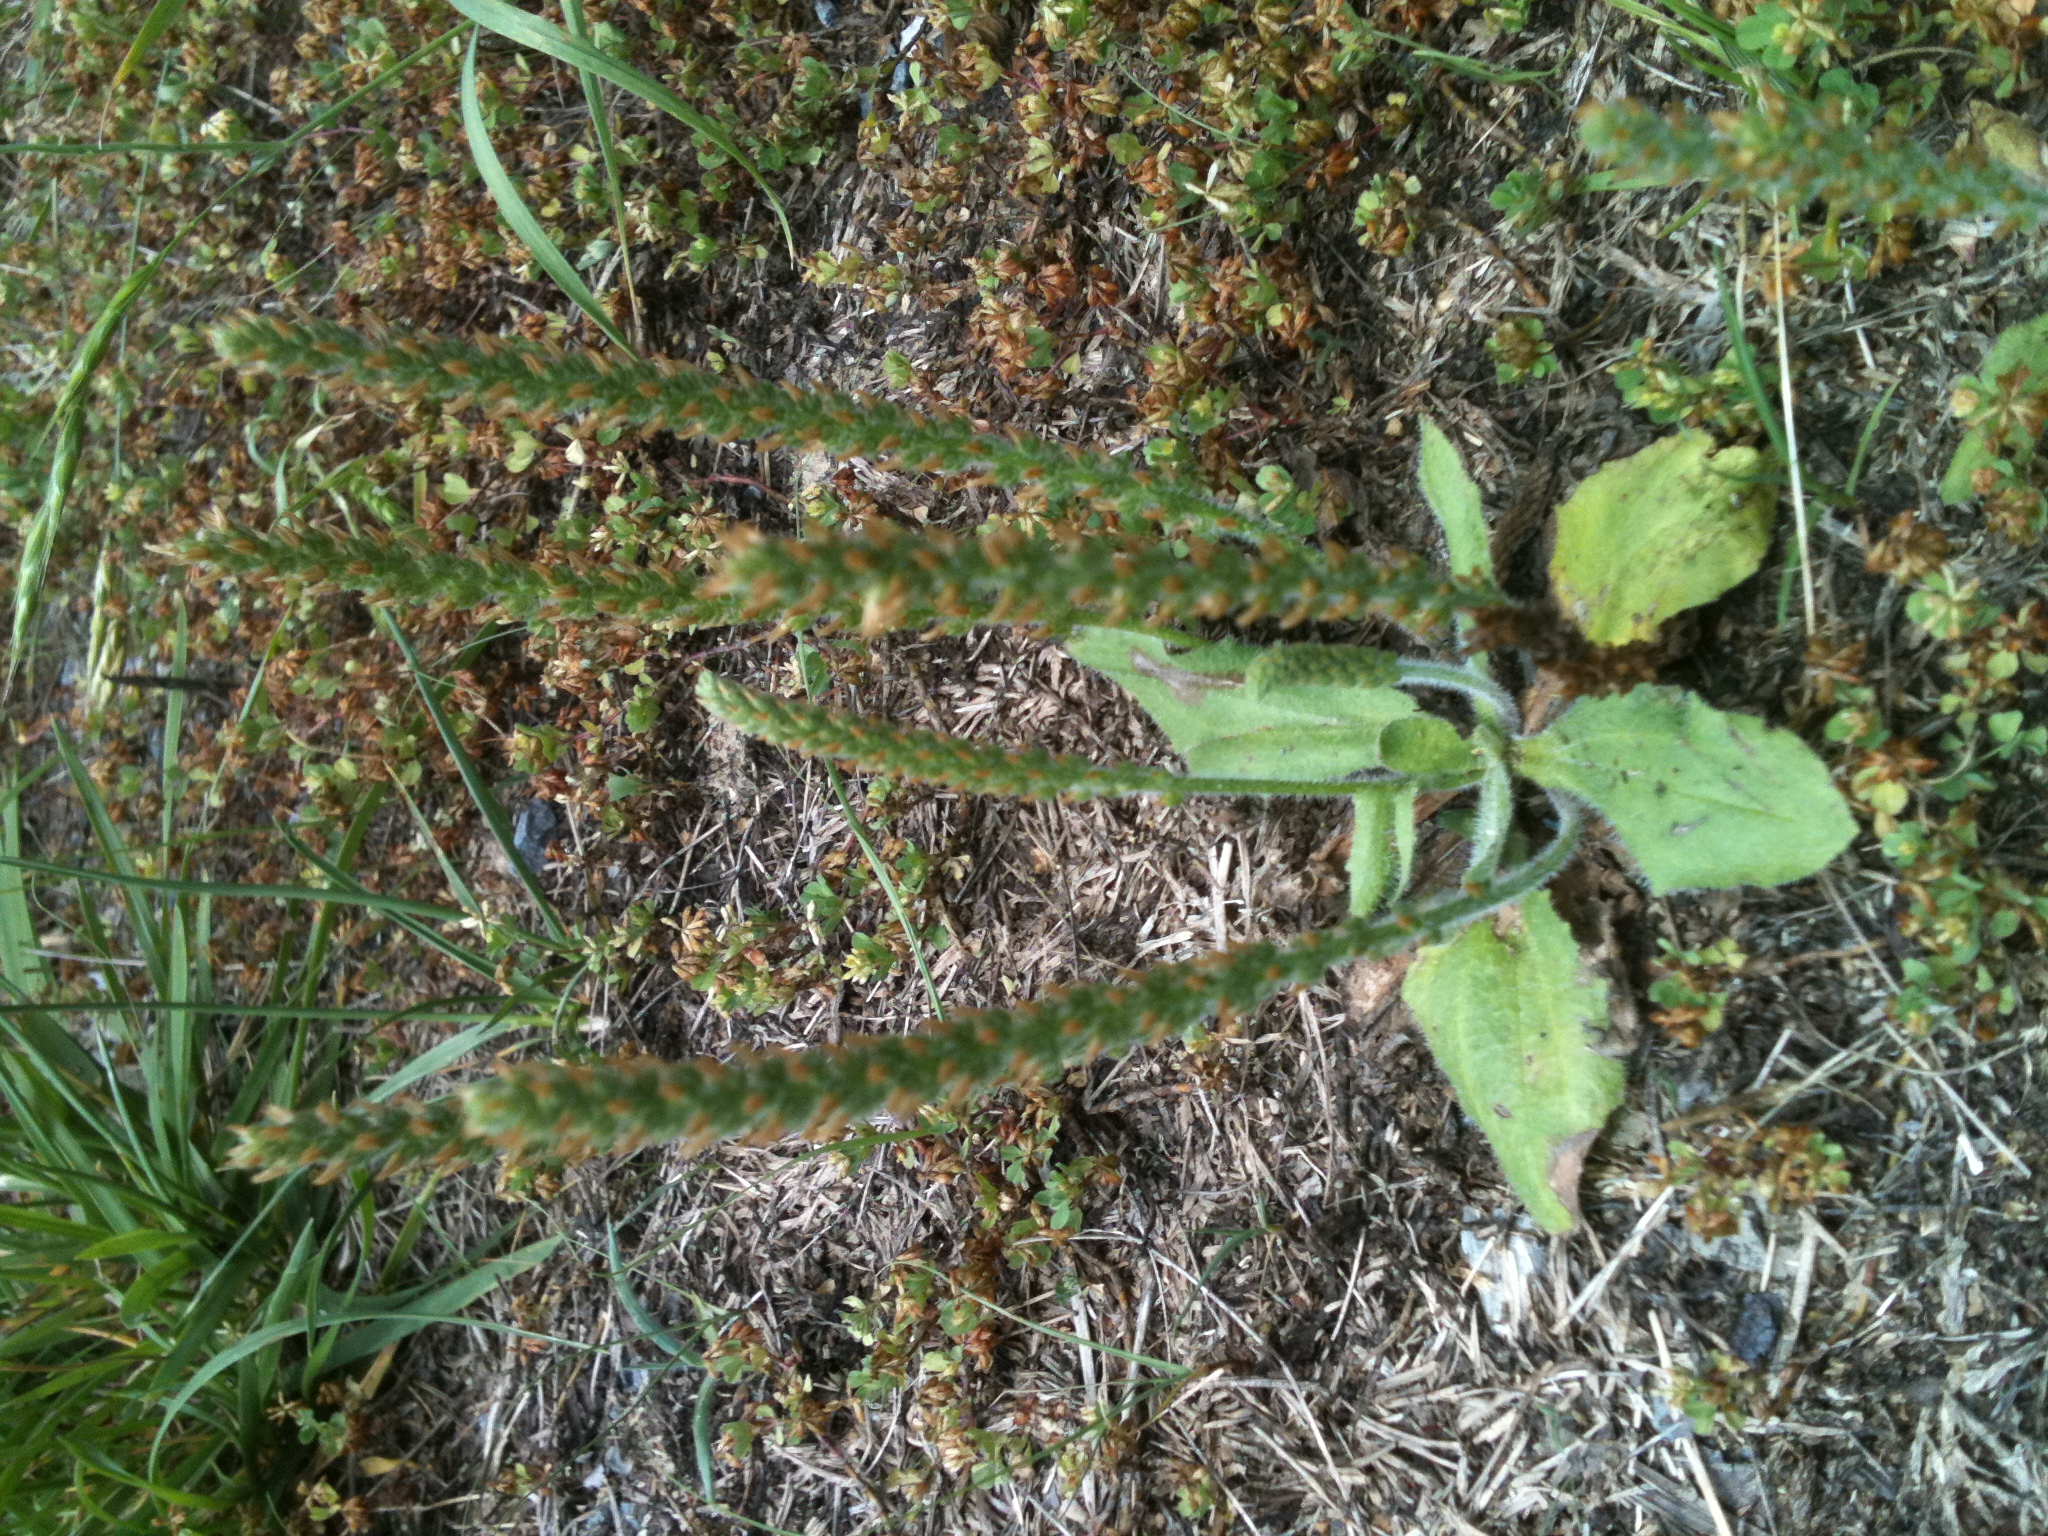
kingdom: Plantae
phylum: Tracheophyta
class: Magnoliopsida
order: Lamiales
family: Plantaginaceae
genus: Plantago
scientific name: Plantago virginica
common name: Hoary plantain
